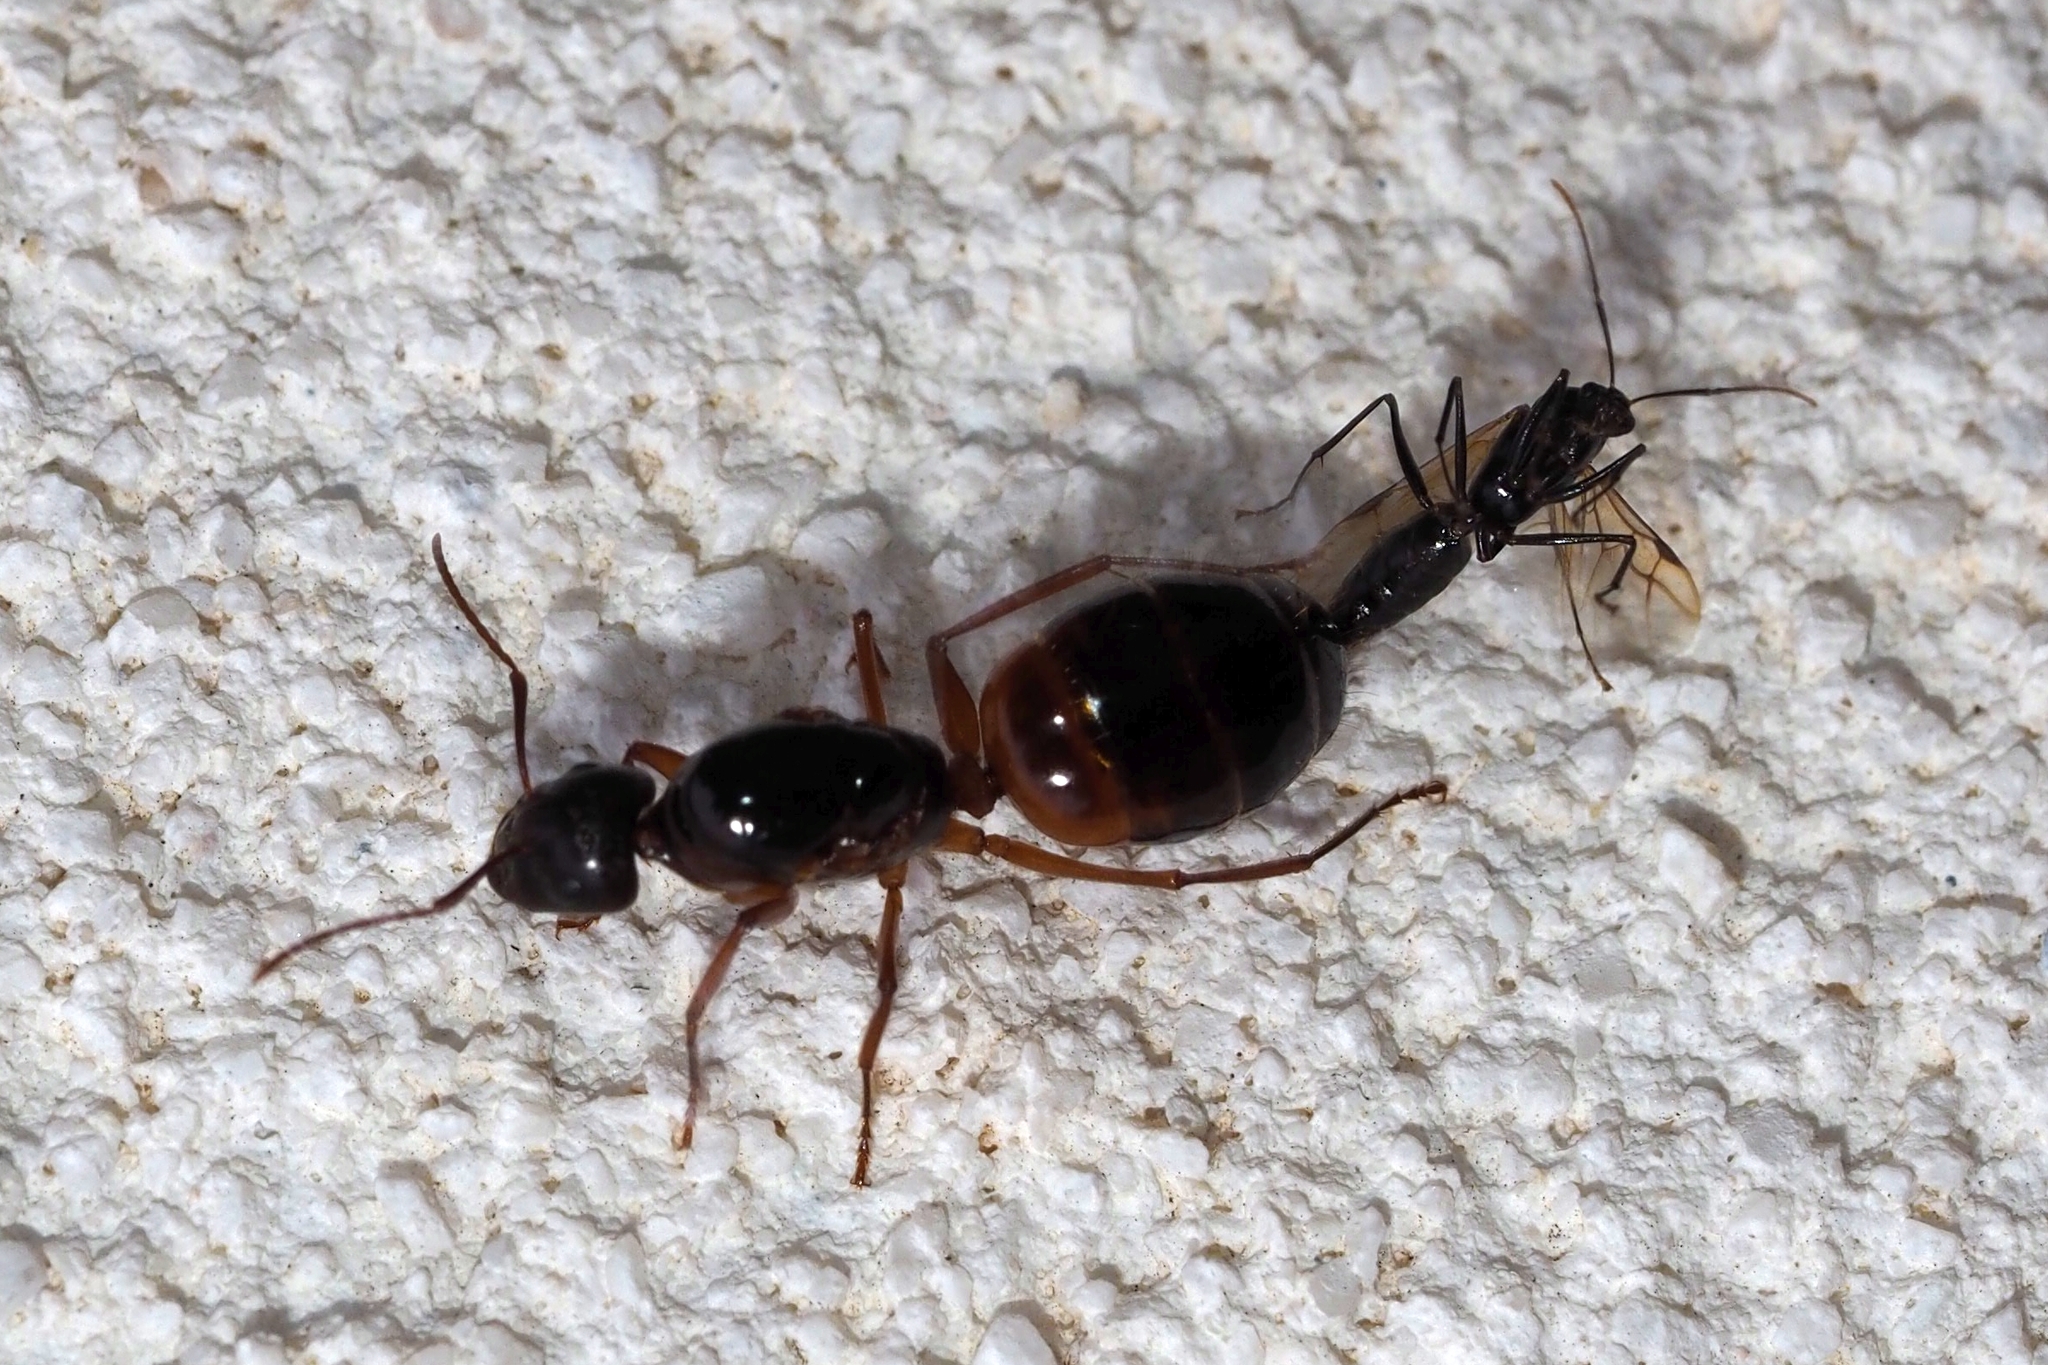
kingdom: Animalia
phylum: Arthropoda
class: Insecta
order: Hymenoptera
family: Formicidae
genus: Camponotus
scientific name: Camponotus nylanderi
